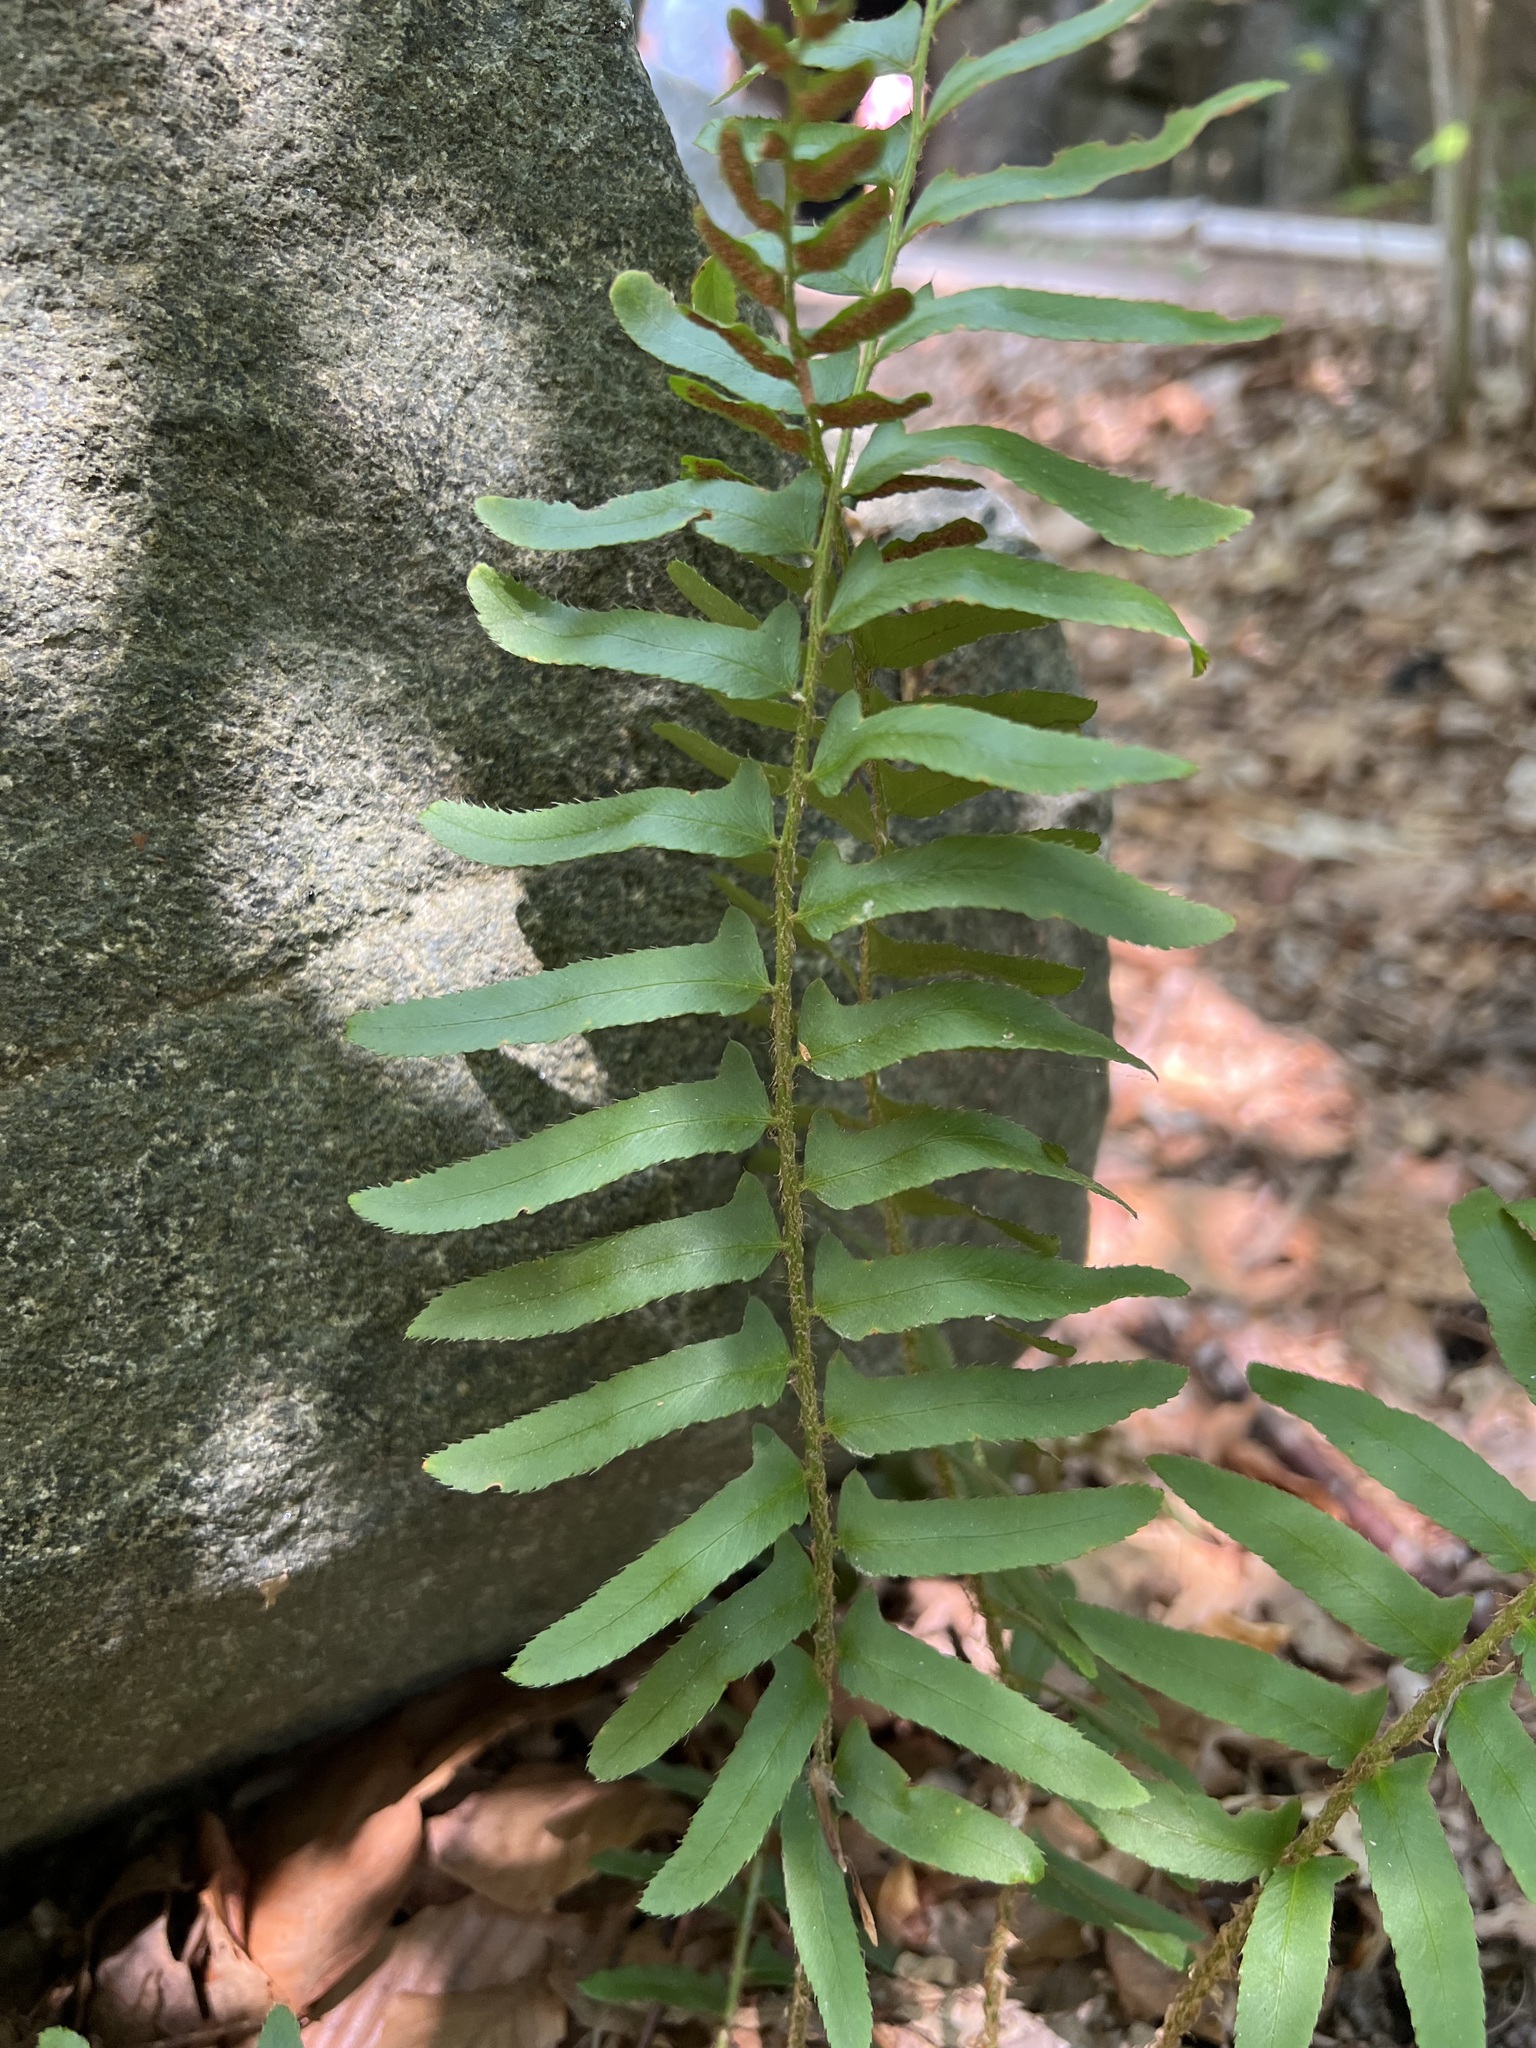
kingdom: Plantae
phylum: Tracheophyta
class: Polypodiopsida
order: Polypodiales
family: Dryopteridaceae
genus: Polystichum
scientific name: Polystichum acrostichoides
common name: Christmas fern
